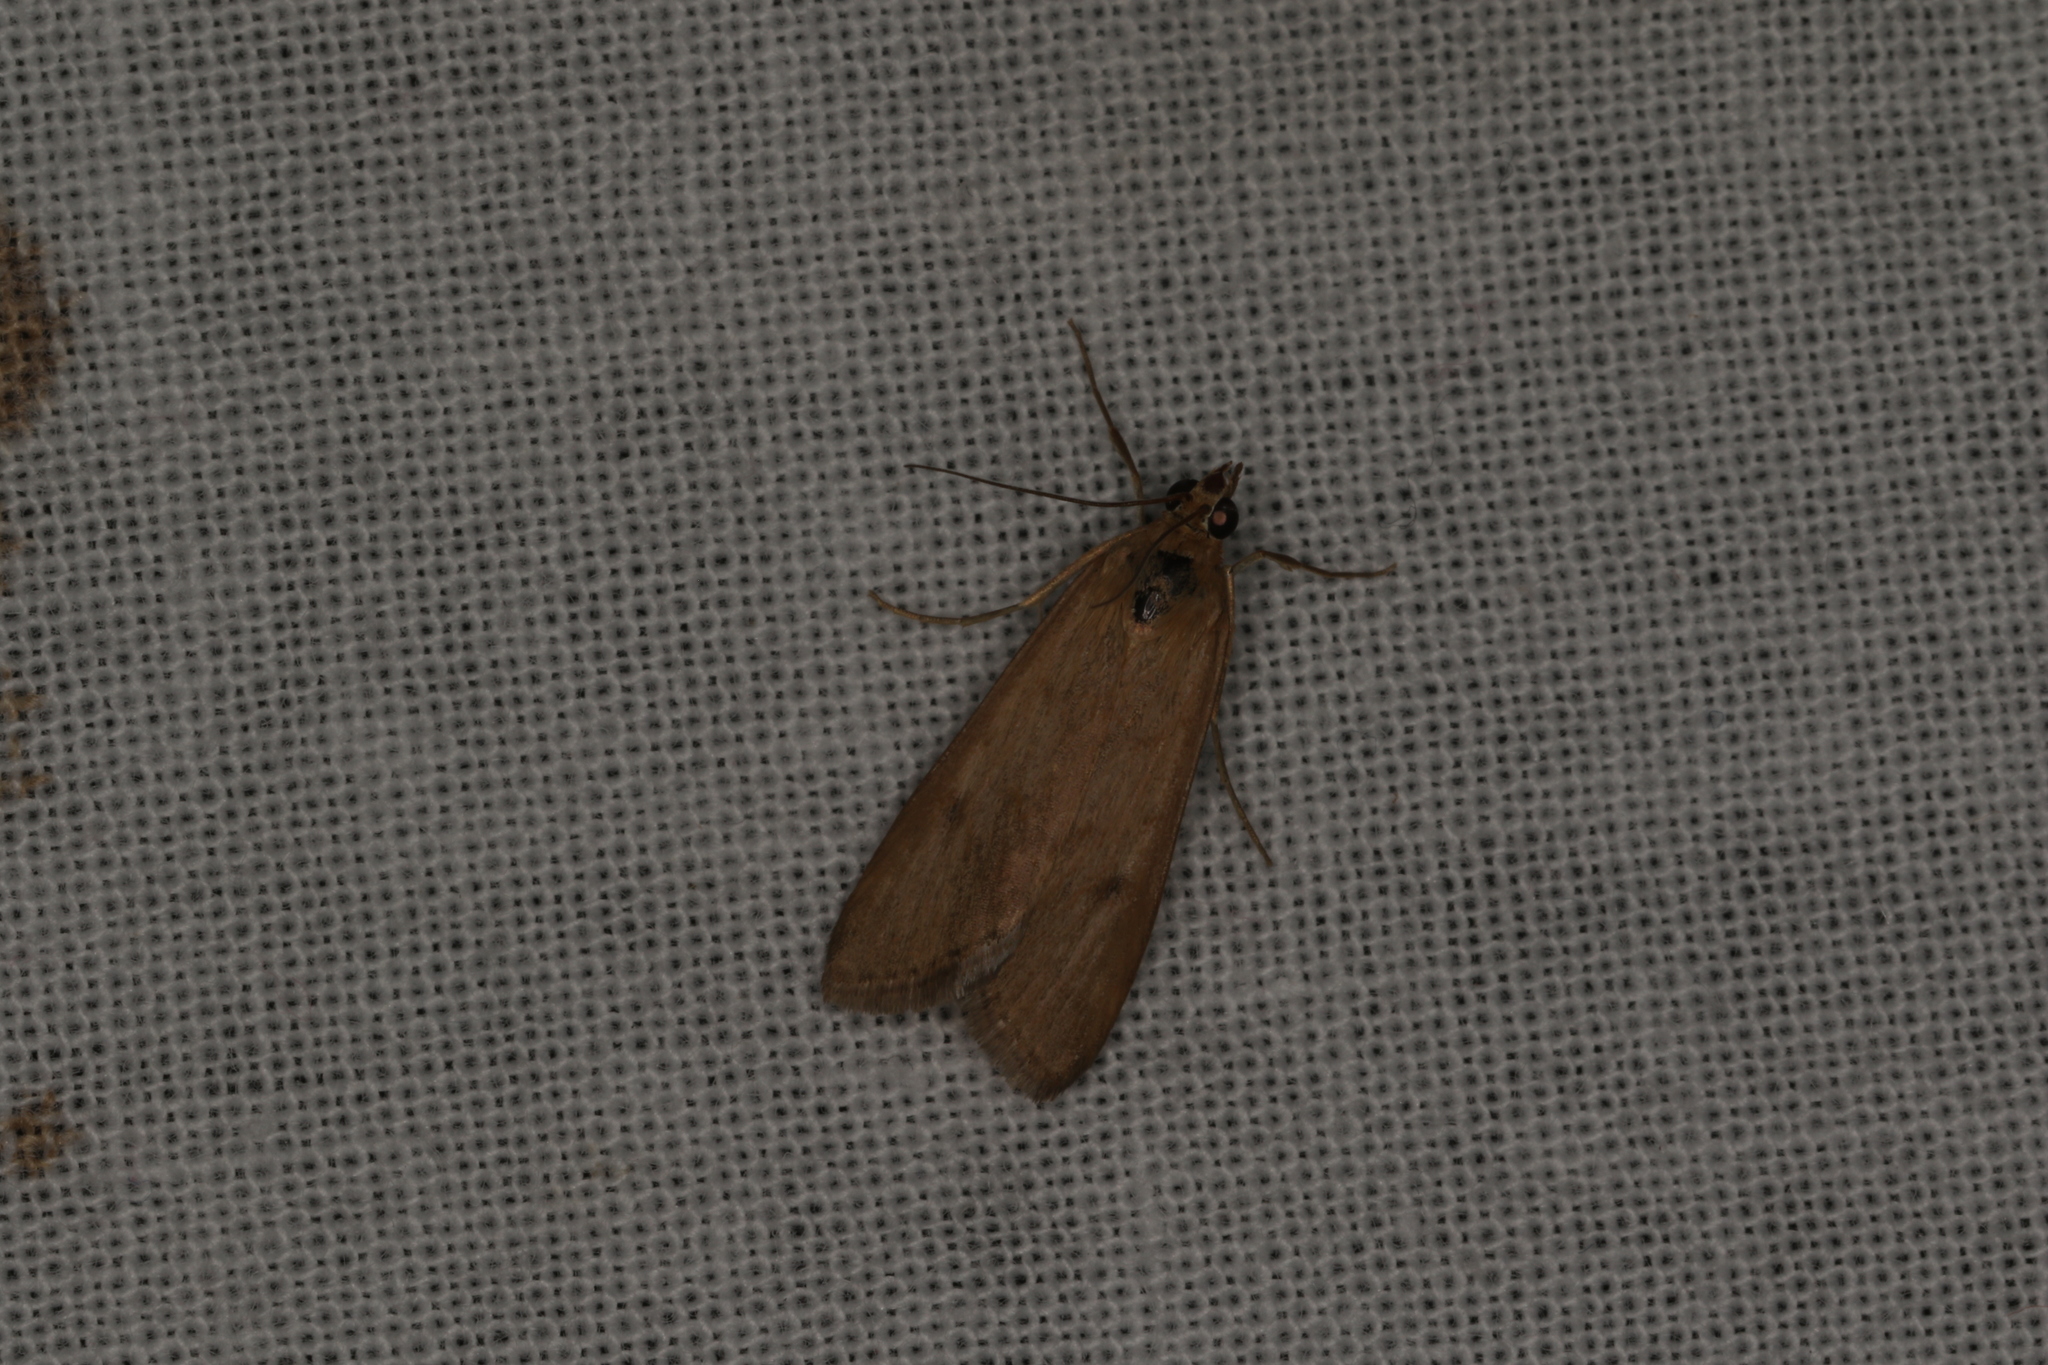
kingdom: Animalia
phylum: Arthropoda
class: Insecta
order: Lepidoptera
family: Crambidae
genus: Achyra
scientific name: Achyra affinitalis
